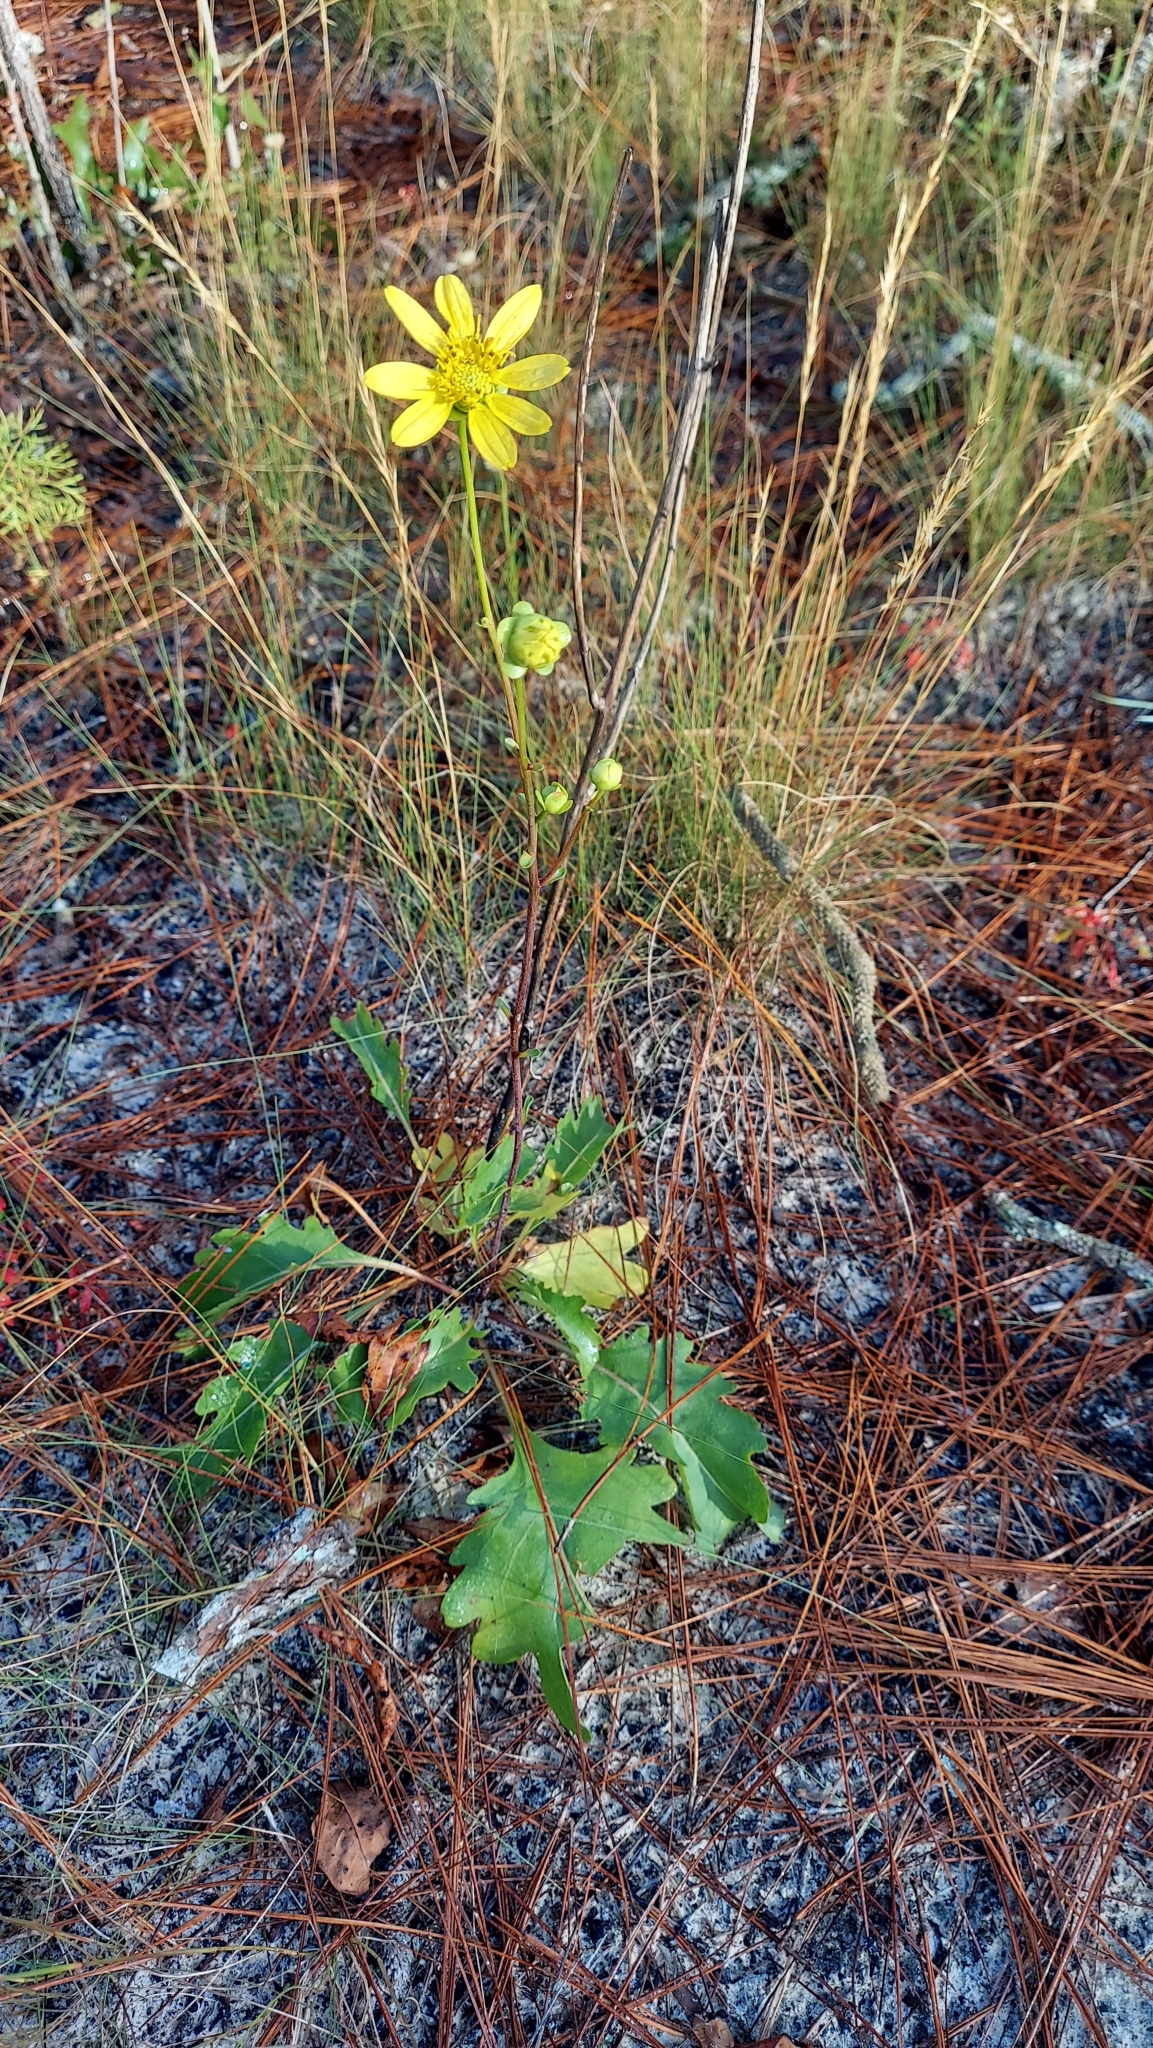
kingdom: Plantae
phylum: Tracheophyta
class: Magnoliopsida
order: Asterales
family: Asteraceae
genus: Silphium
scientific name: Silphium compositum
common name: Lesser basal-leaf rosinweed
